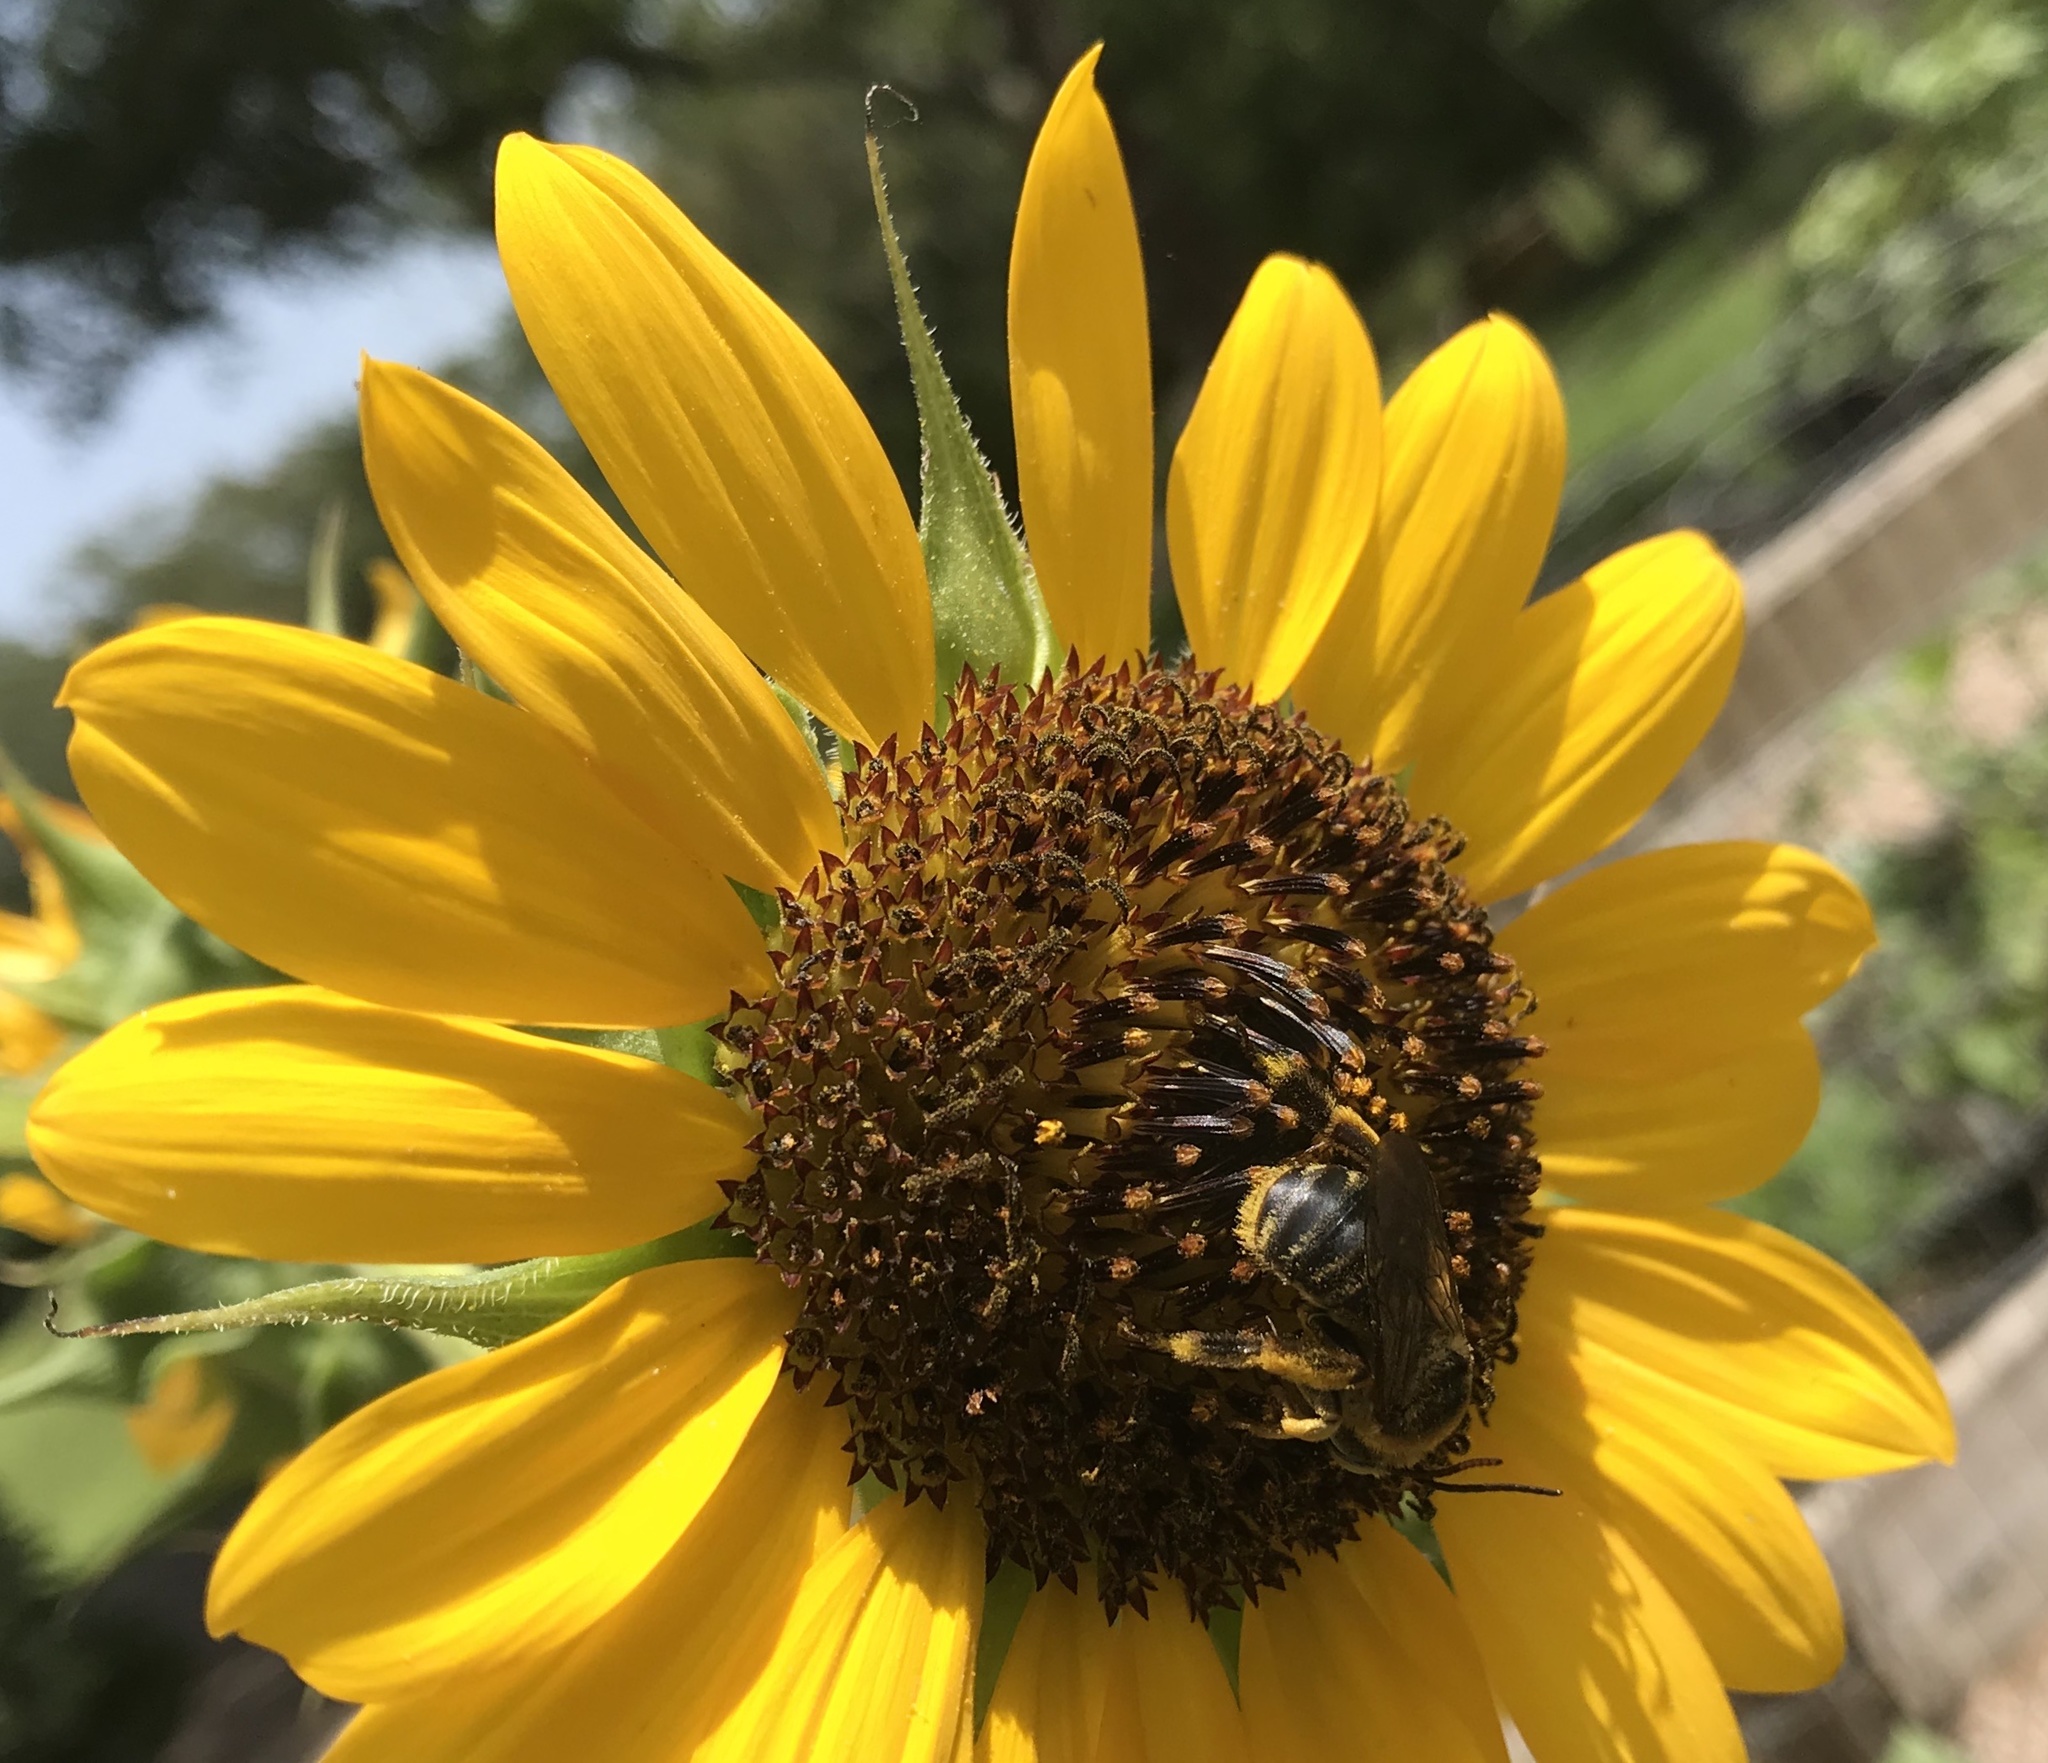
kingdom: Animalia
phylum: Arthropoda
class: Insecta
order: Hymenoptera
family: Apidae
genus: Svastra
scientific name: Svastra obliqua
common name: Oblique longhorn
